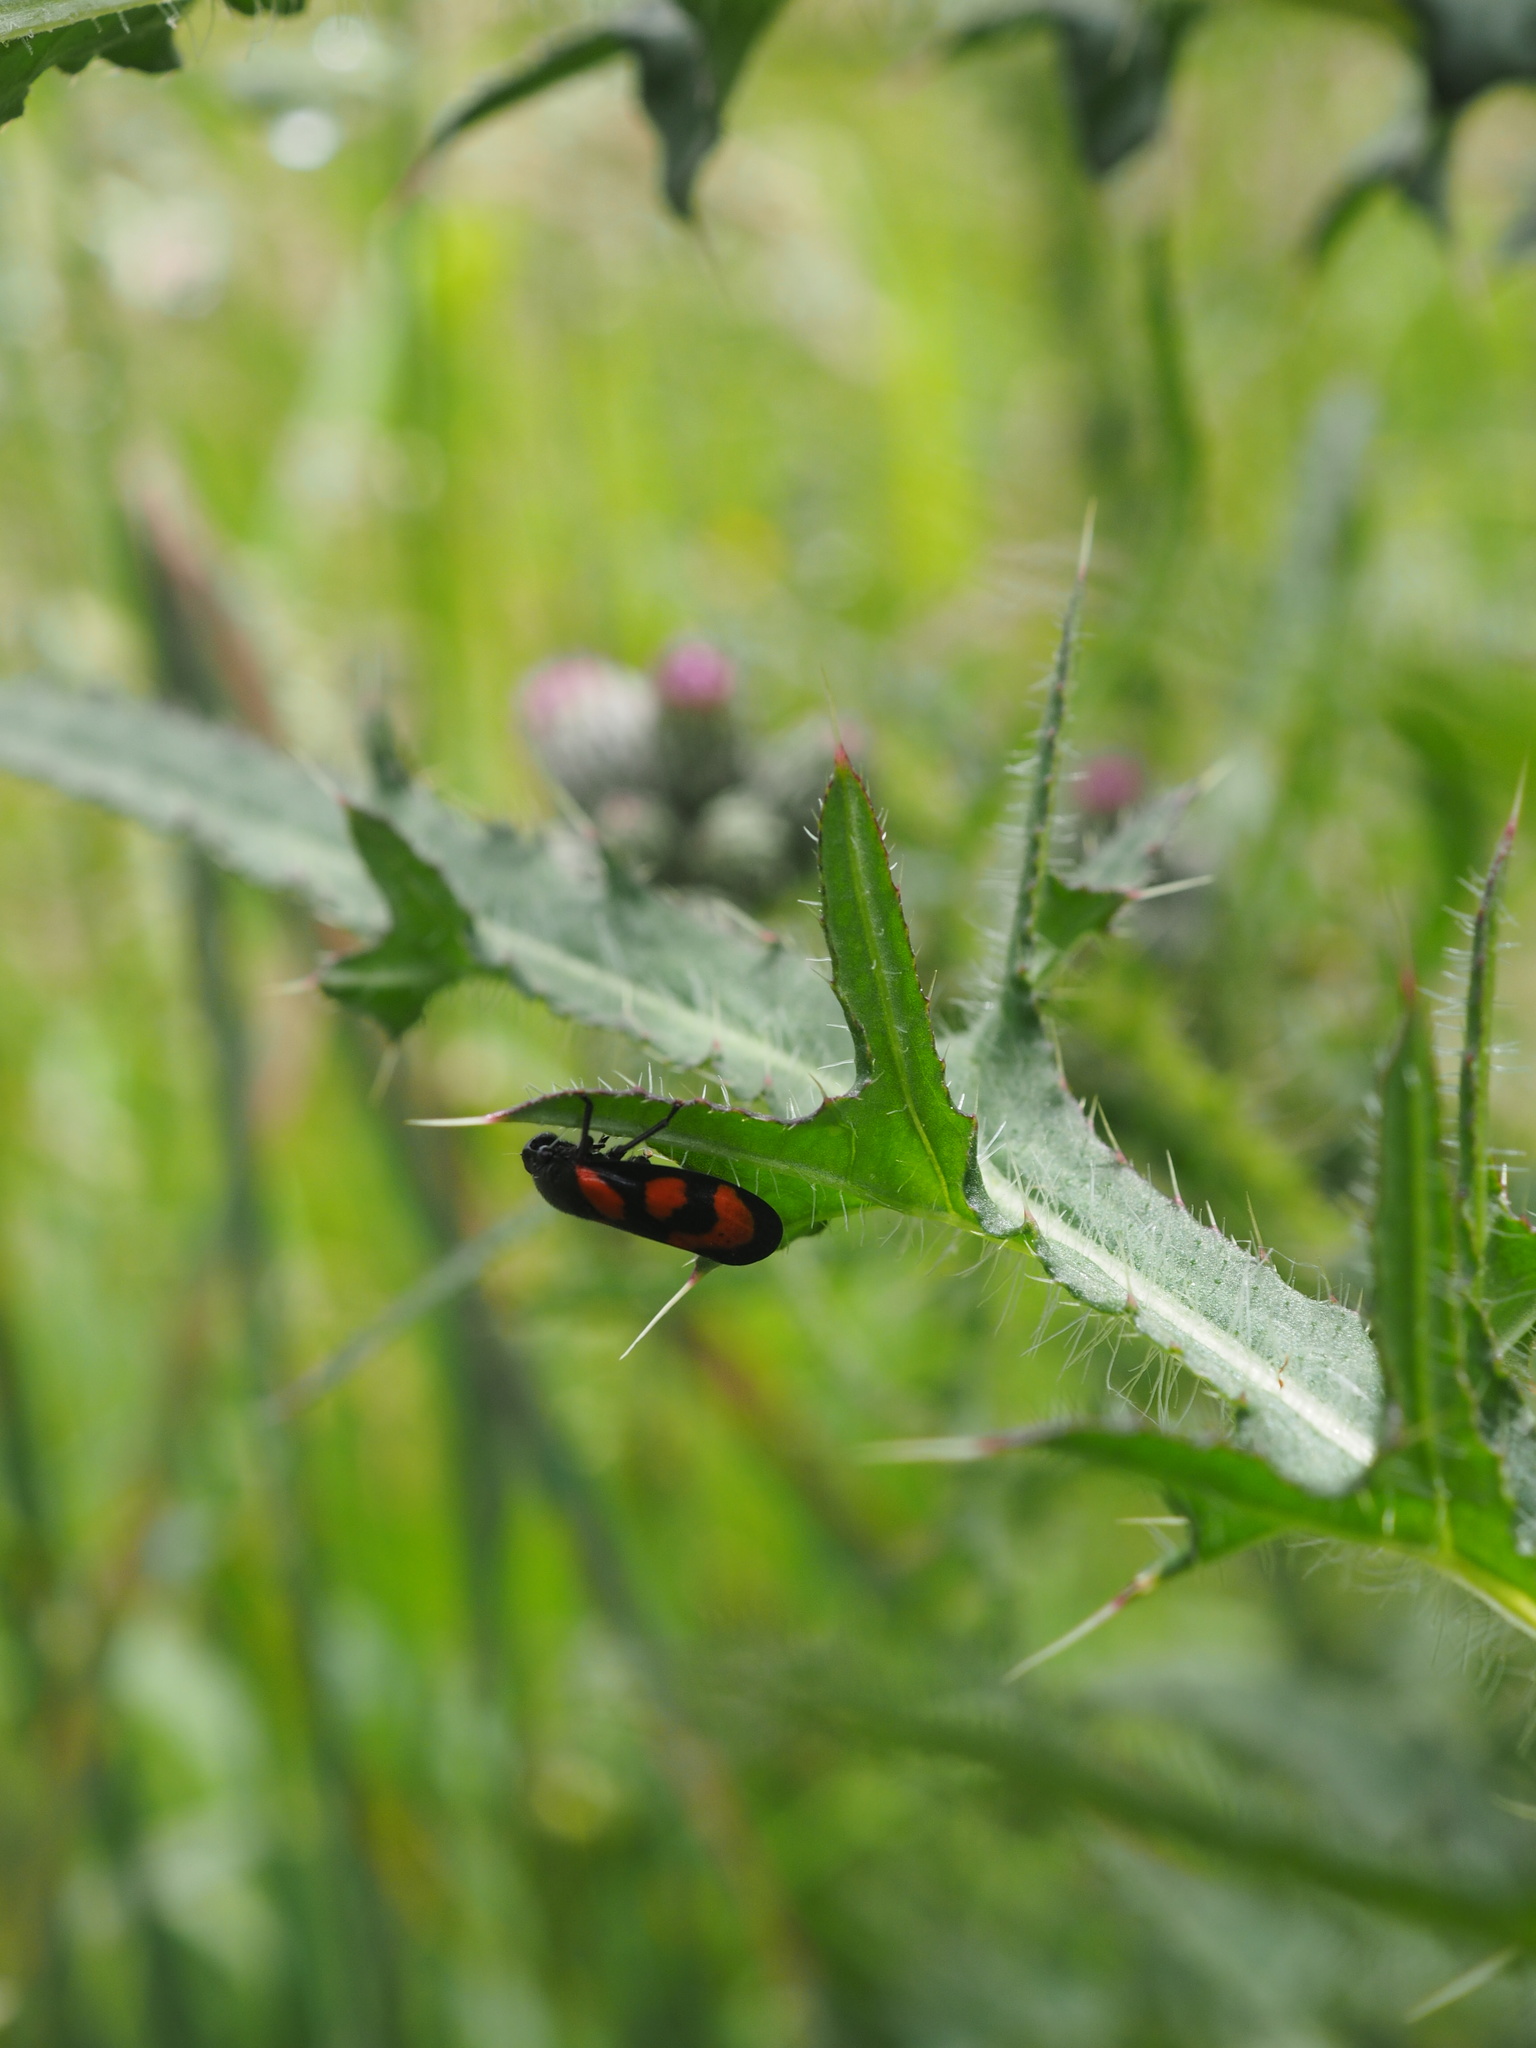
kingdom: Animalia
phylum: Arthropoda
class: Insecta
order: Hemiptera
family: Cercopidae
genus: Cercopis
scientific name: Cercopis vulnerata
